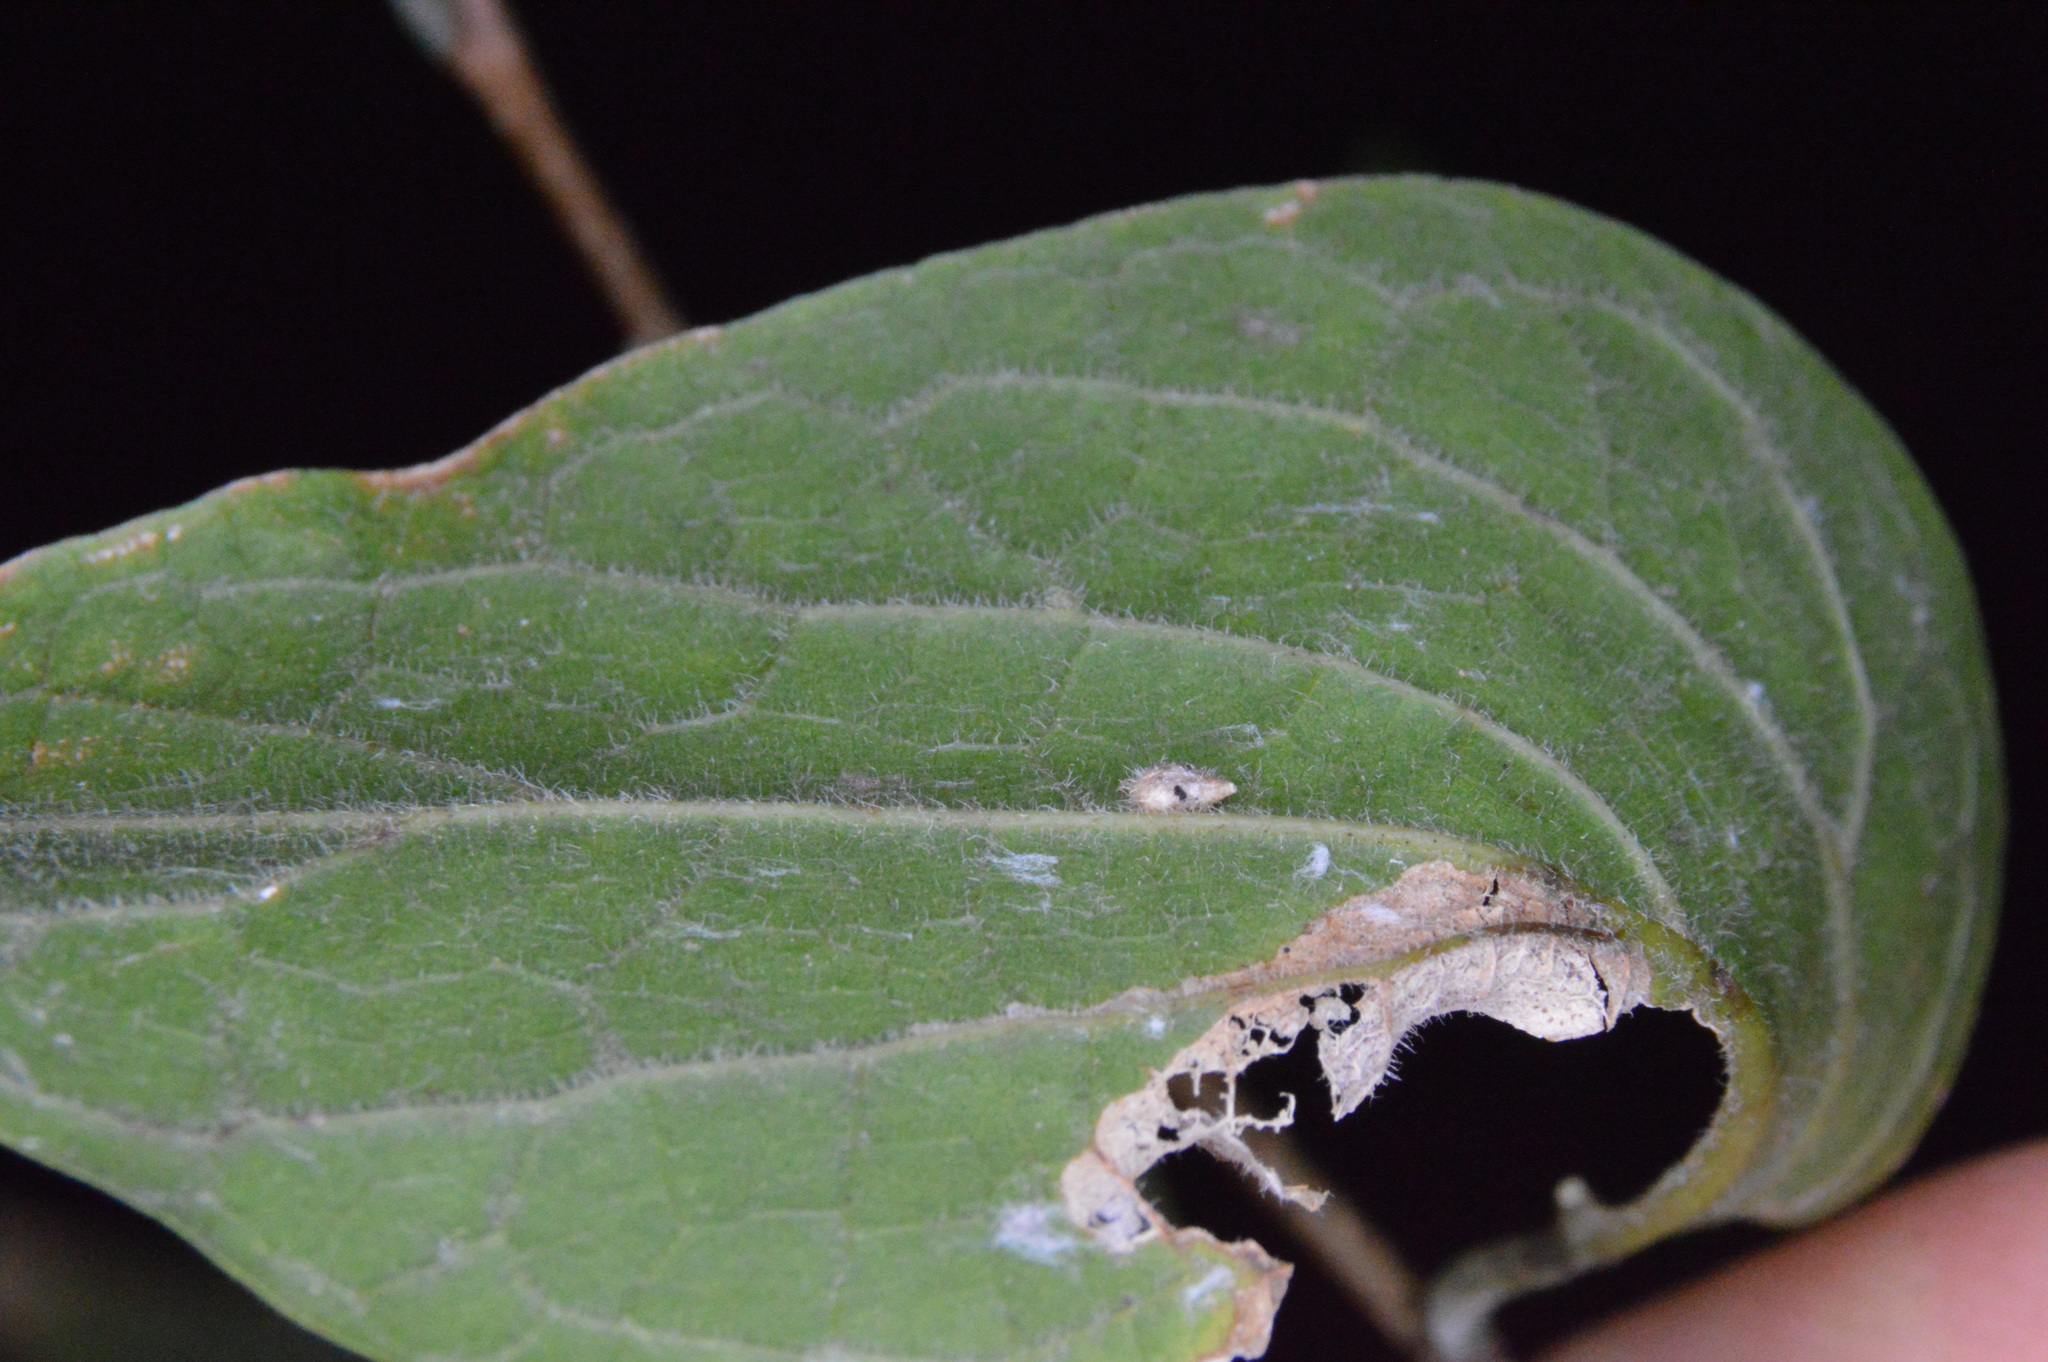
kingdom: Animalia
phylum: Arthropoda
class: Insecta
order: Diptera
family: Cecidomyiidae
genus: Celticecis
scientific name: Celticecis supina
